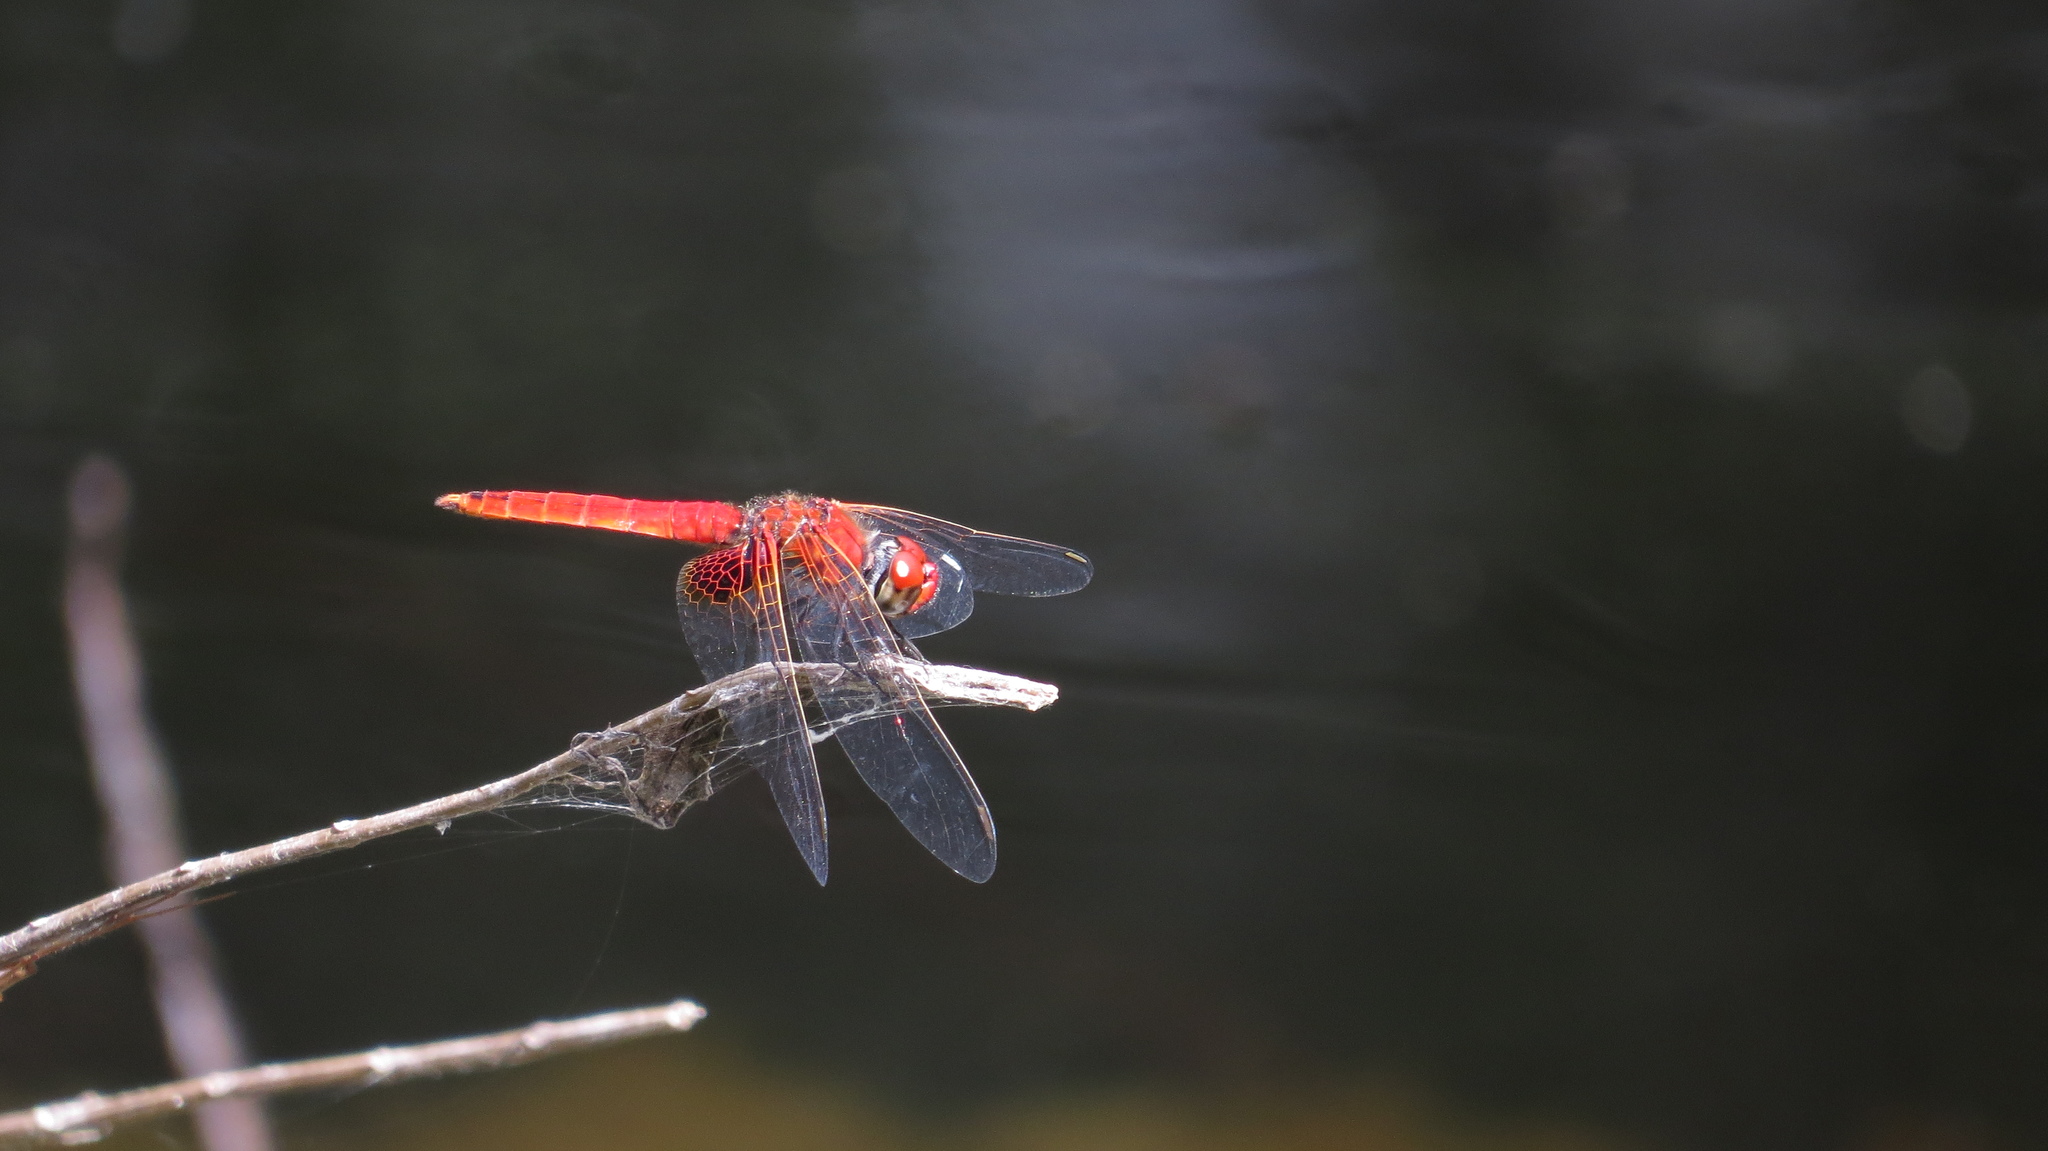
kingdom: Animalia
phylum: Arthropoda
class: Insecta
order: Odonata
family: Libellulidae
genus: Aethriamanta
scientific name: Aethriamanta circumsignata
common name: Square-spot basker
